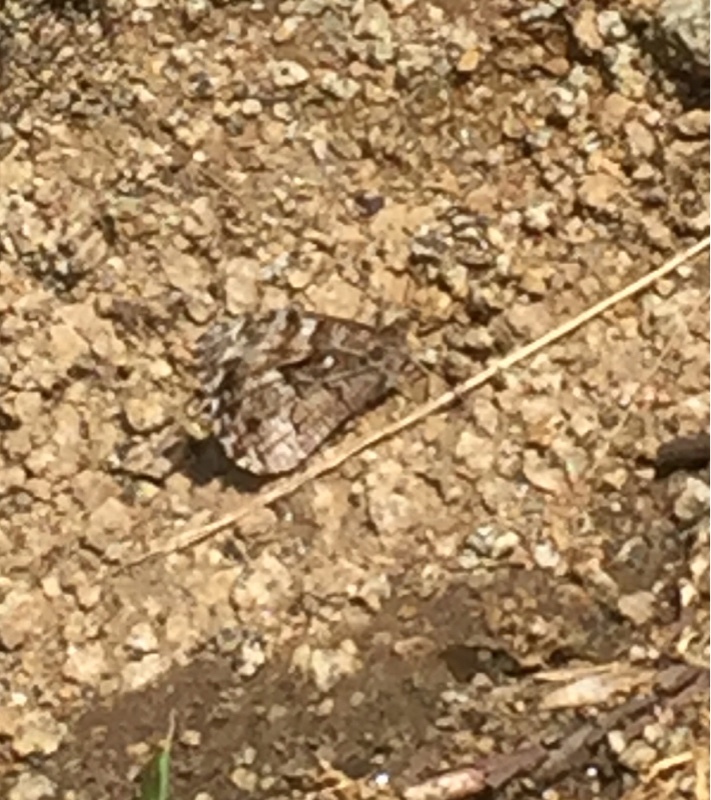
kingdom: Animalia
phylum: Arthropoda
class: Insecta
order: Lepidoptera
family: Nymphalidae
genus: Hipparchia
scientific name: Hipparchia pellucida
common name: Lesbos grayling
